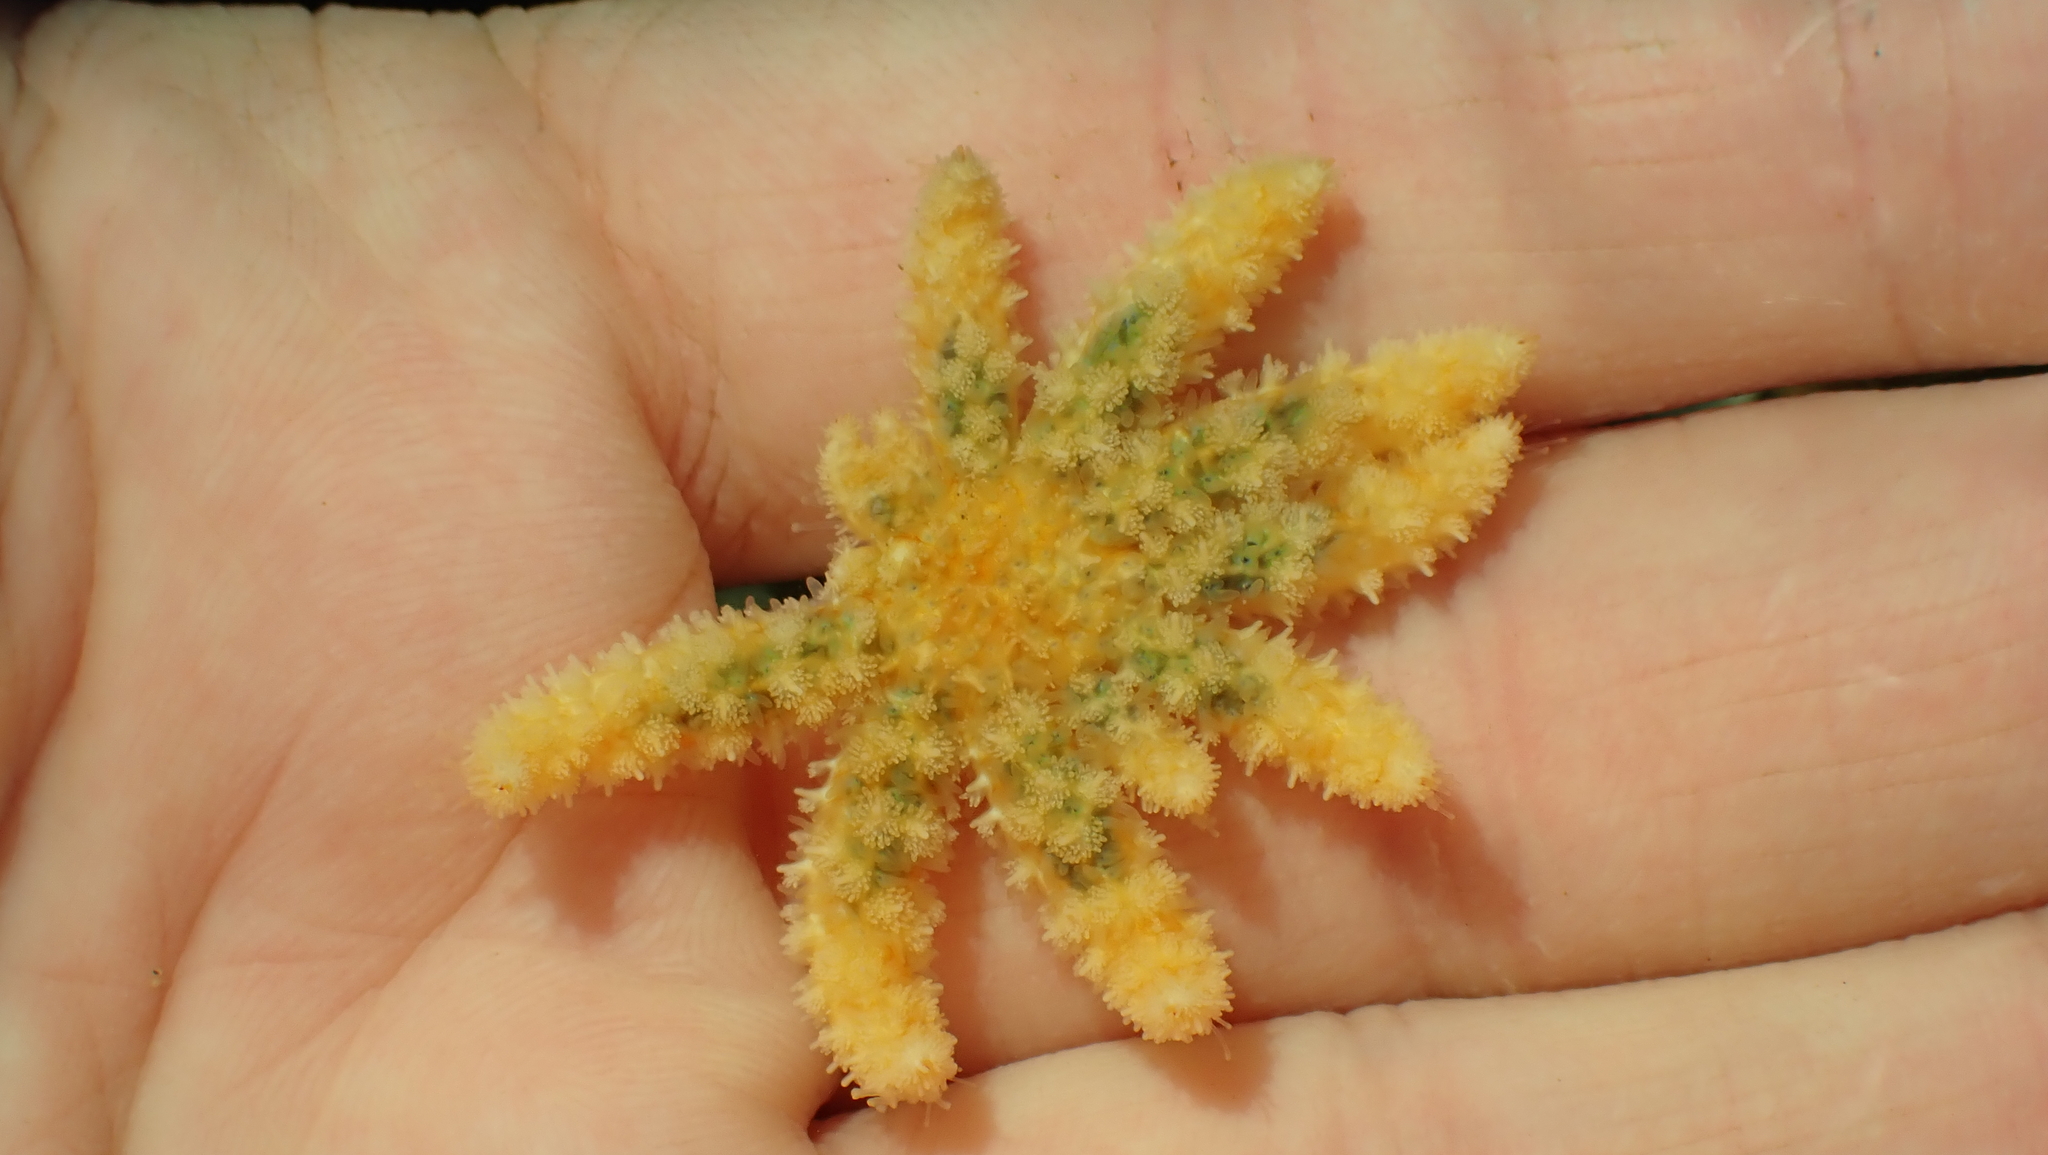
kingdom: Animalia
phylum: Echinodermata
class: Asteroidea
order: Forcipulatida
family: Asteriidae
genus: Pycnopodia
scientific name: Pycnopodia helianthoides
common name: Rag mop
